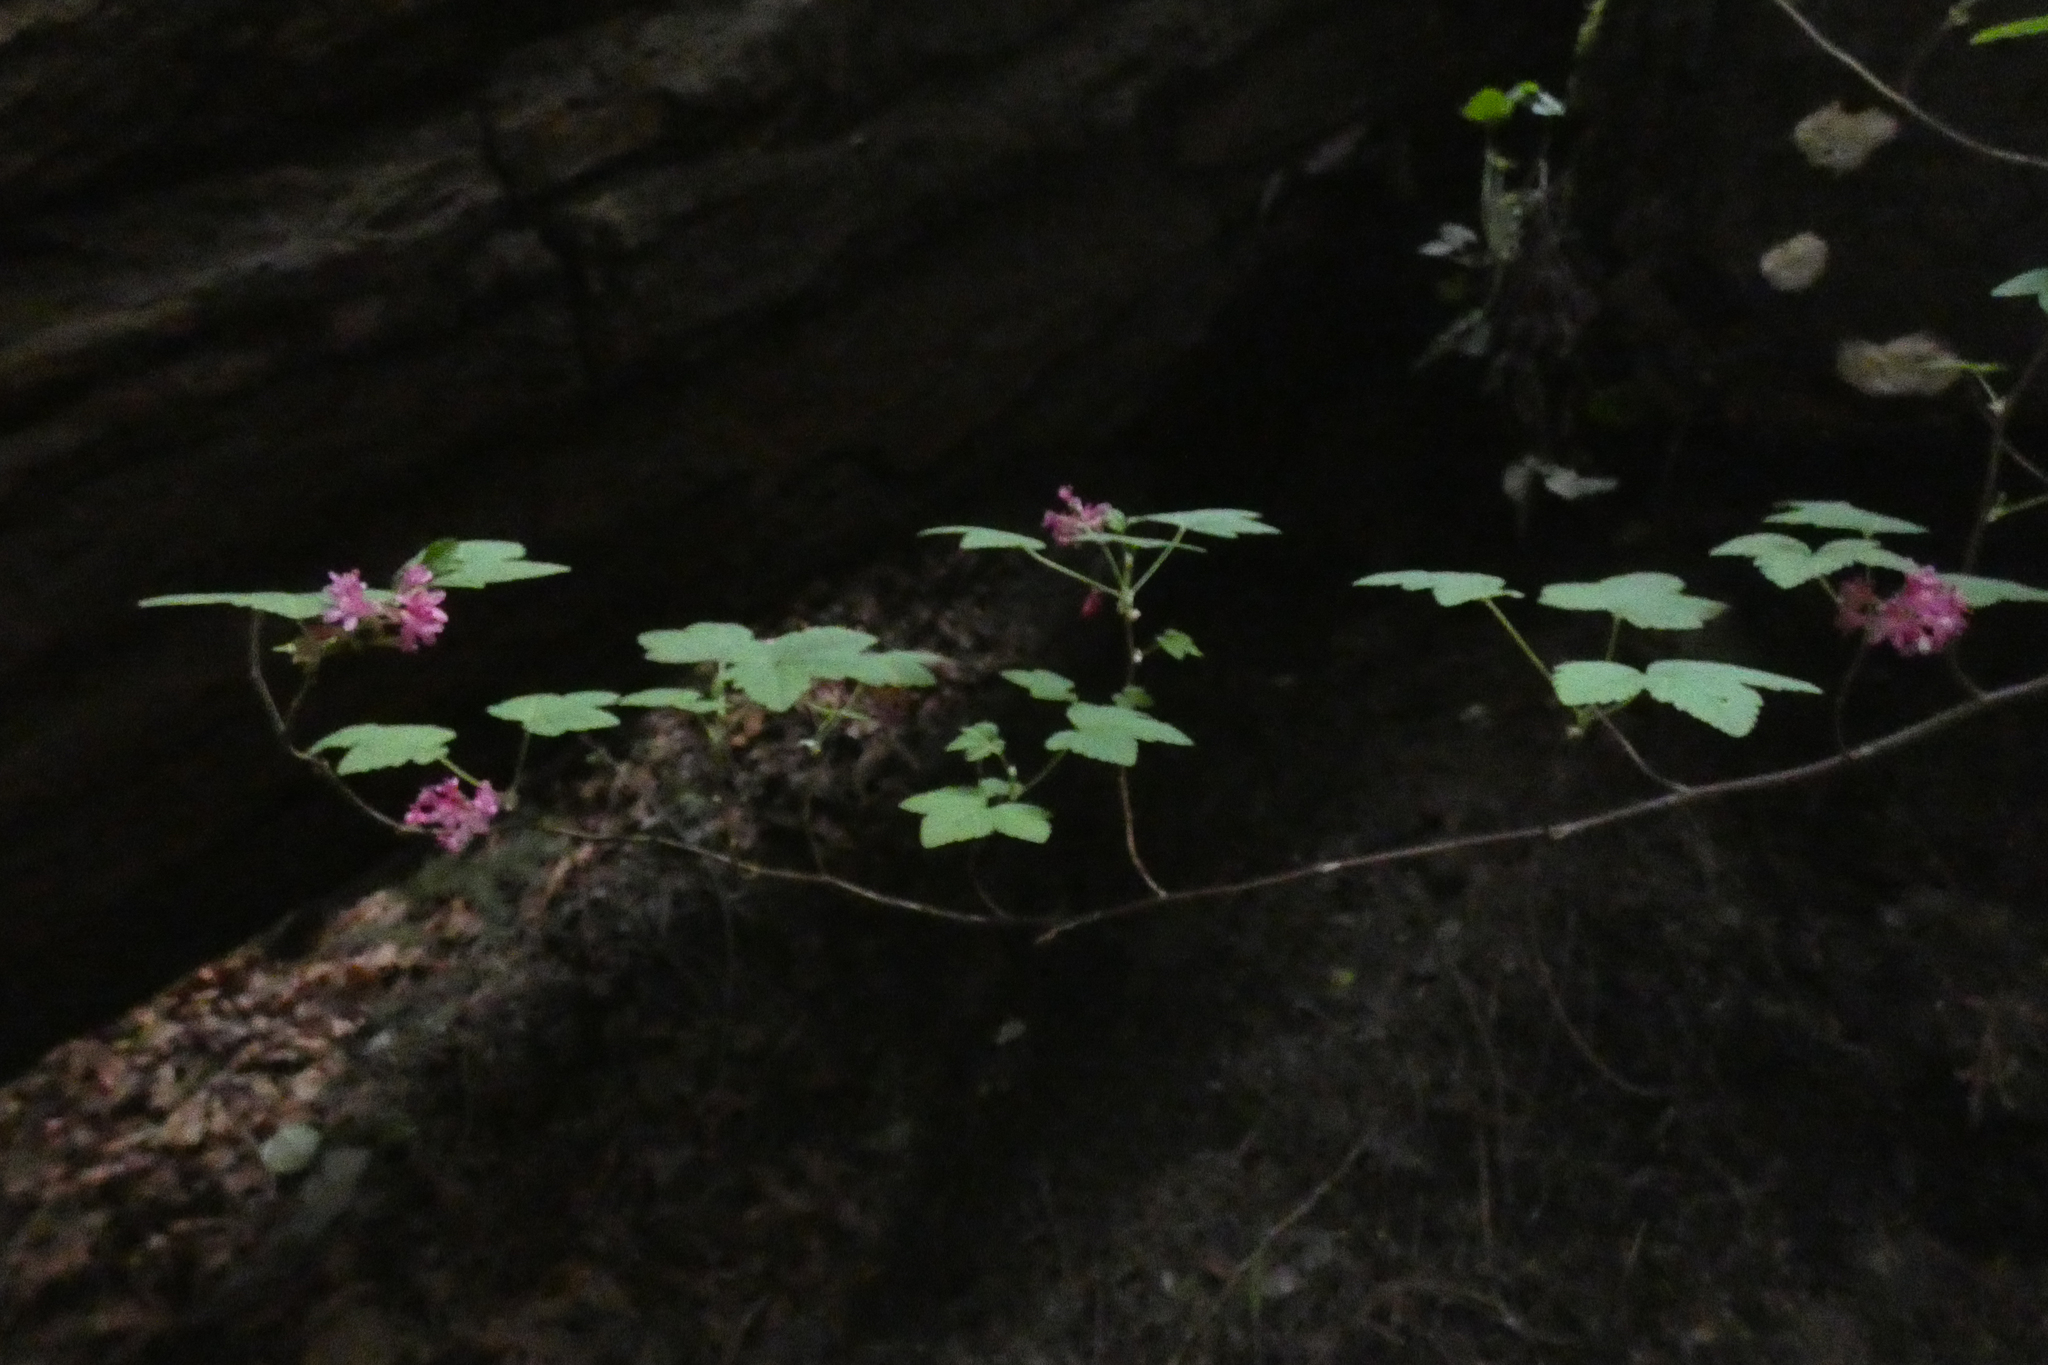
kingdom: Plantae
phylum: Tracheophyta
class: Magnoliopsida
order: Saxifragales
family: Grossulariaceae
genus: Ribes
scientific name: Ribes sanguineum
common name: Flowering currant
